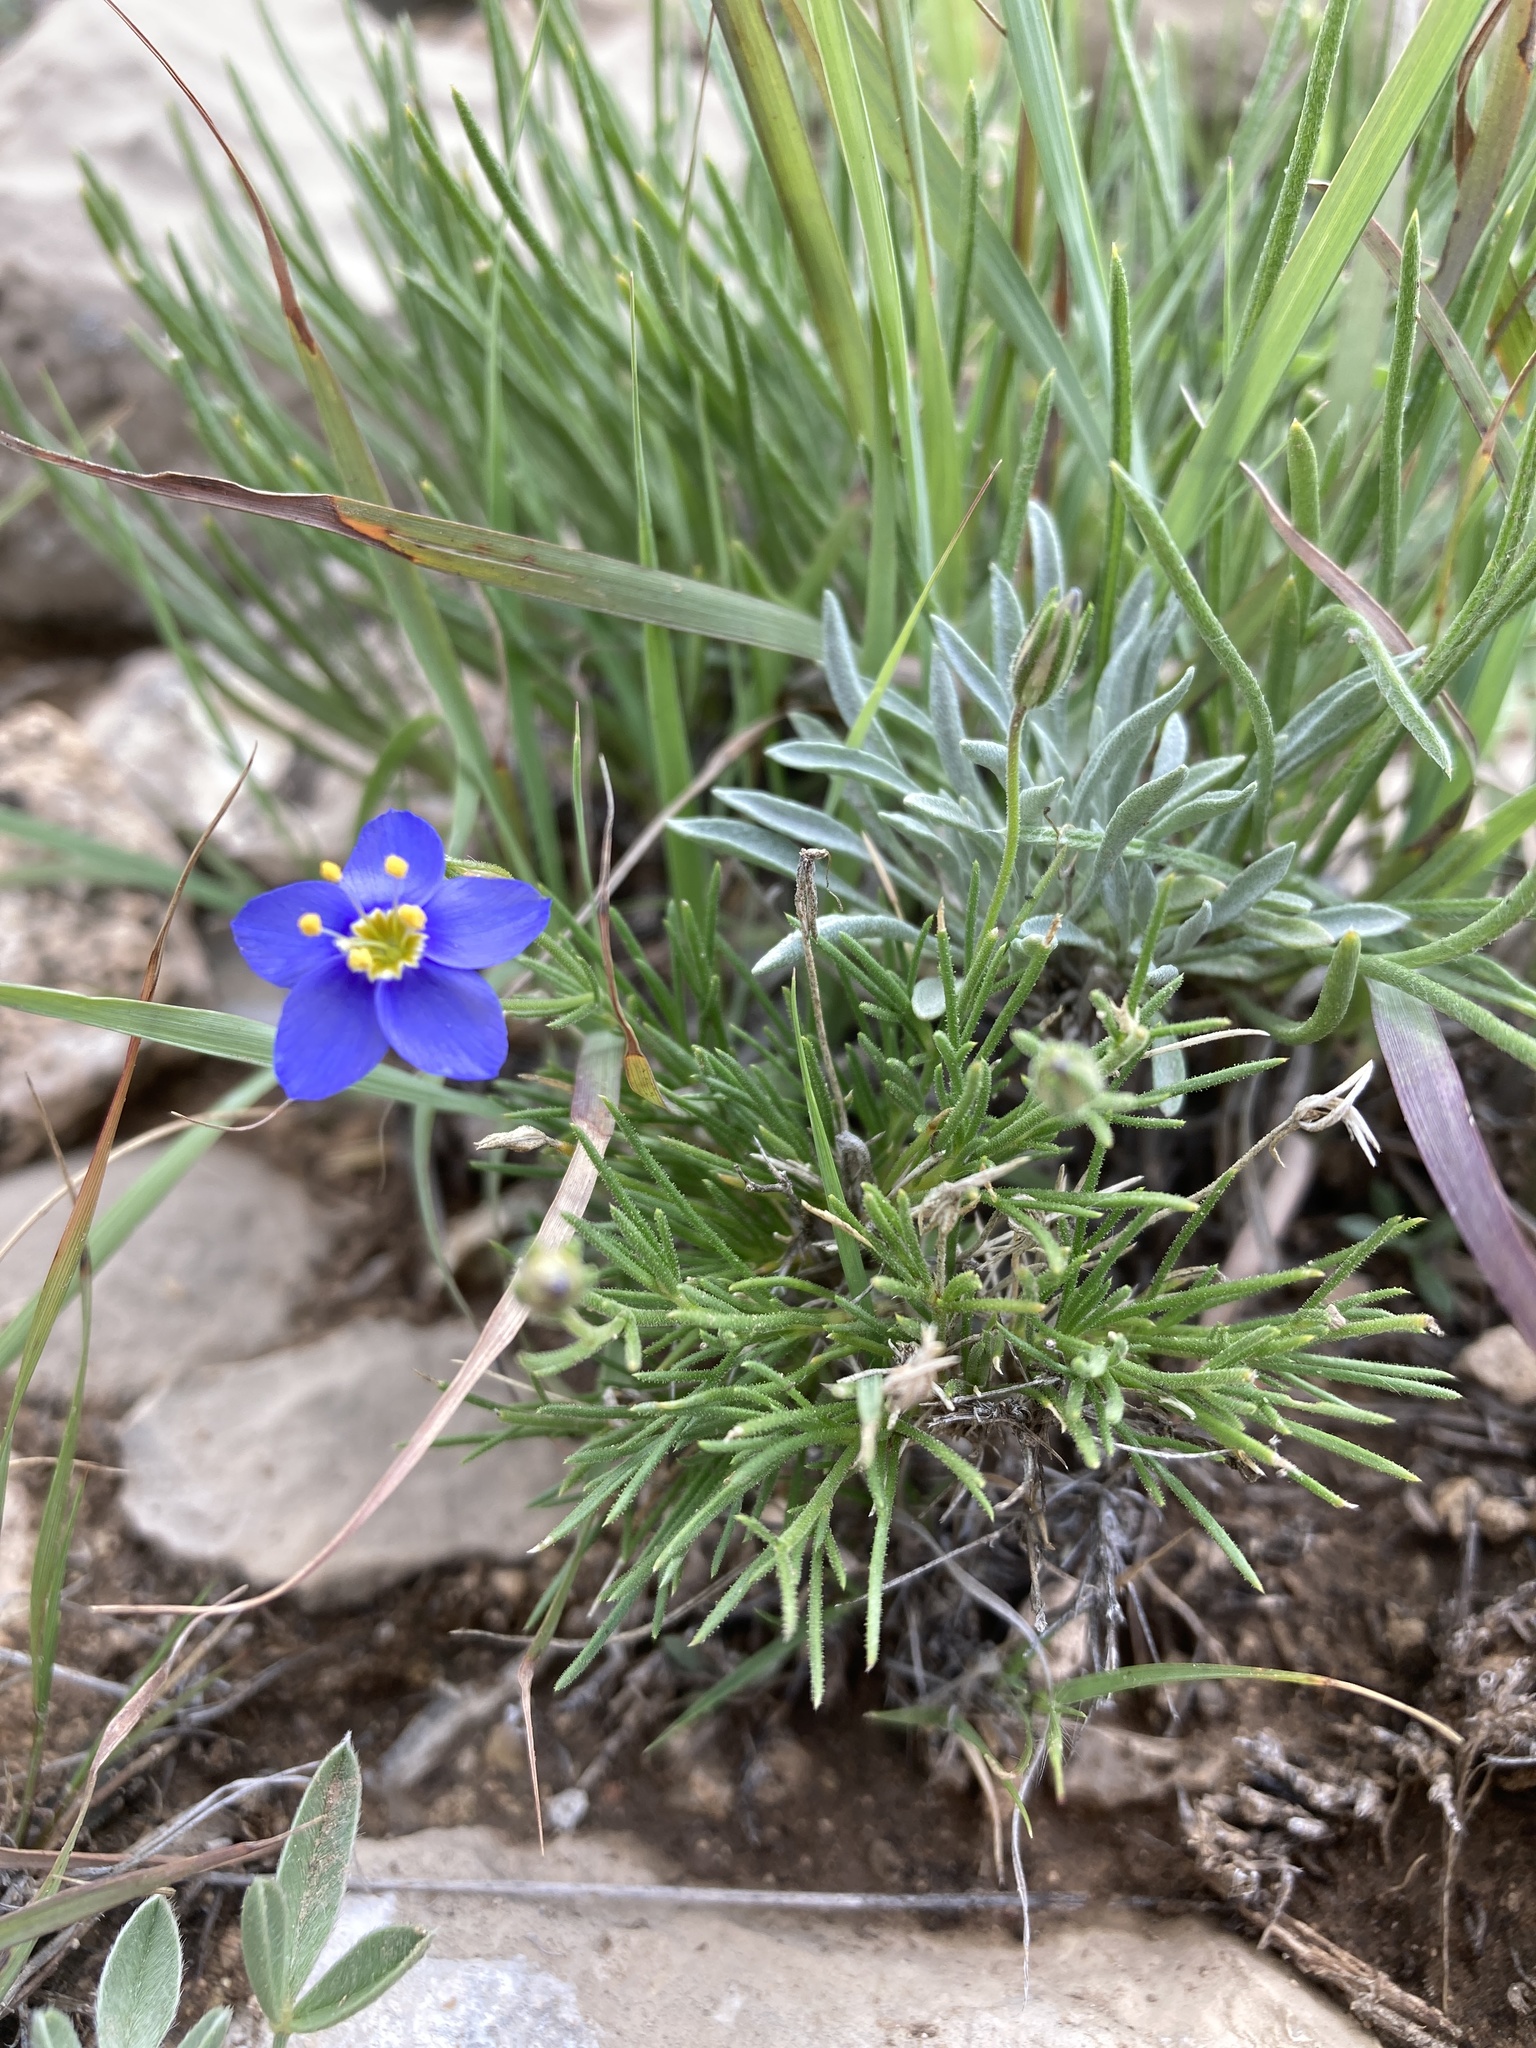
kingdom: Plantae
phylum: Tracheophyta
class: Magnoliopsida
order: Ericales
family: Polemoniaceae
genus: Giliastrum
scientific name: Giliastrum acerosum
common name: Bluebowls
